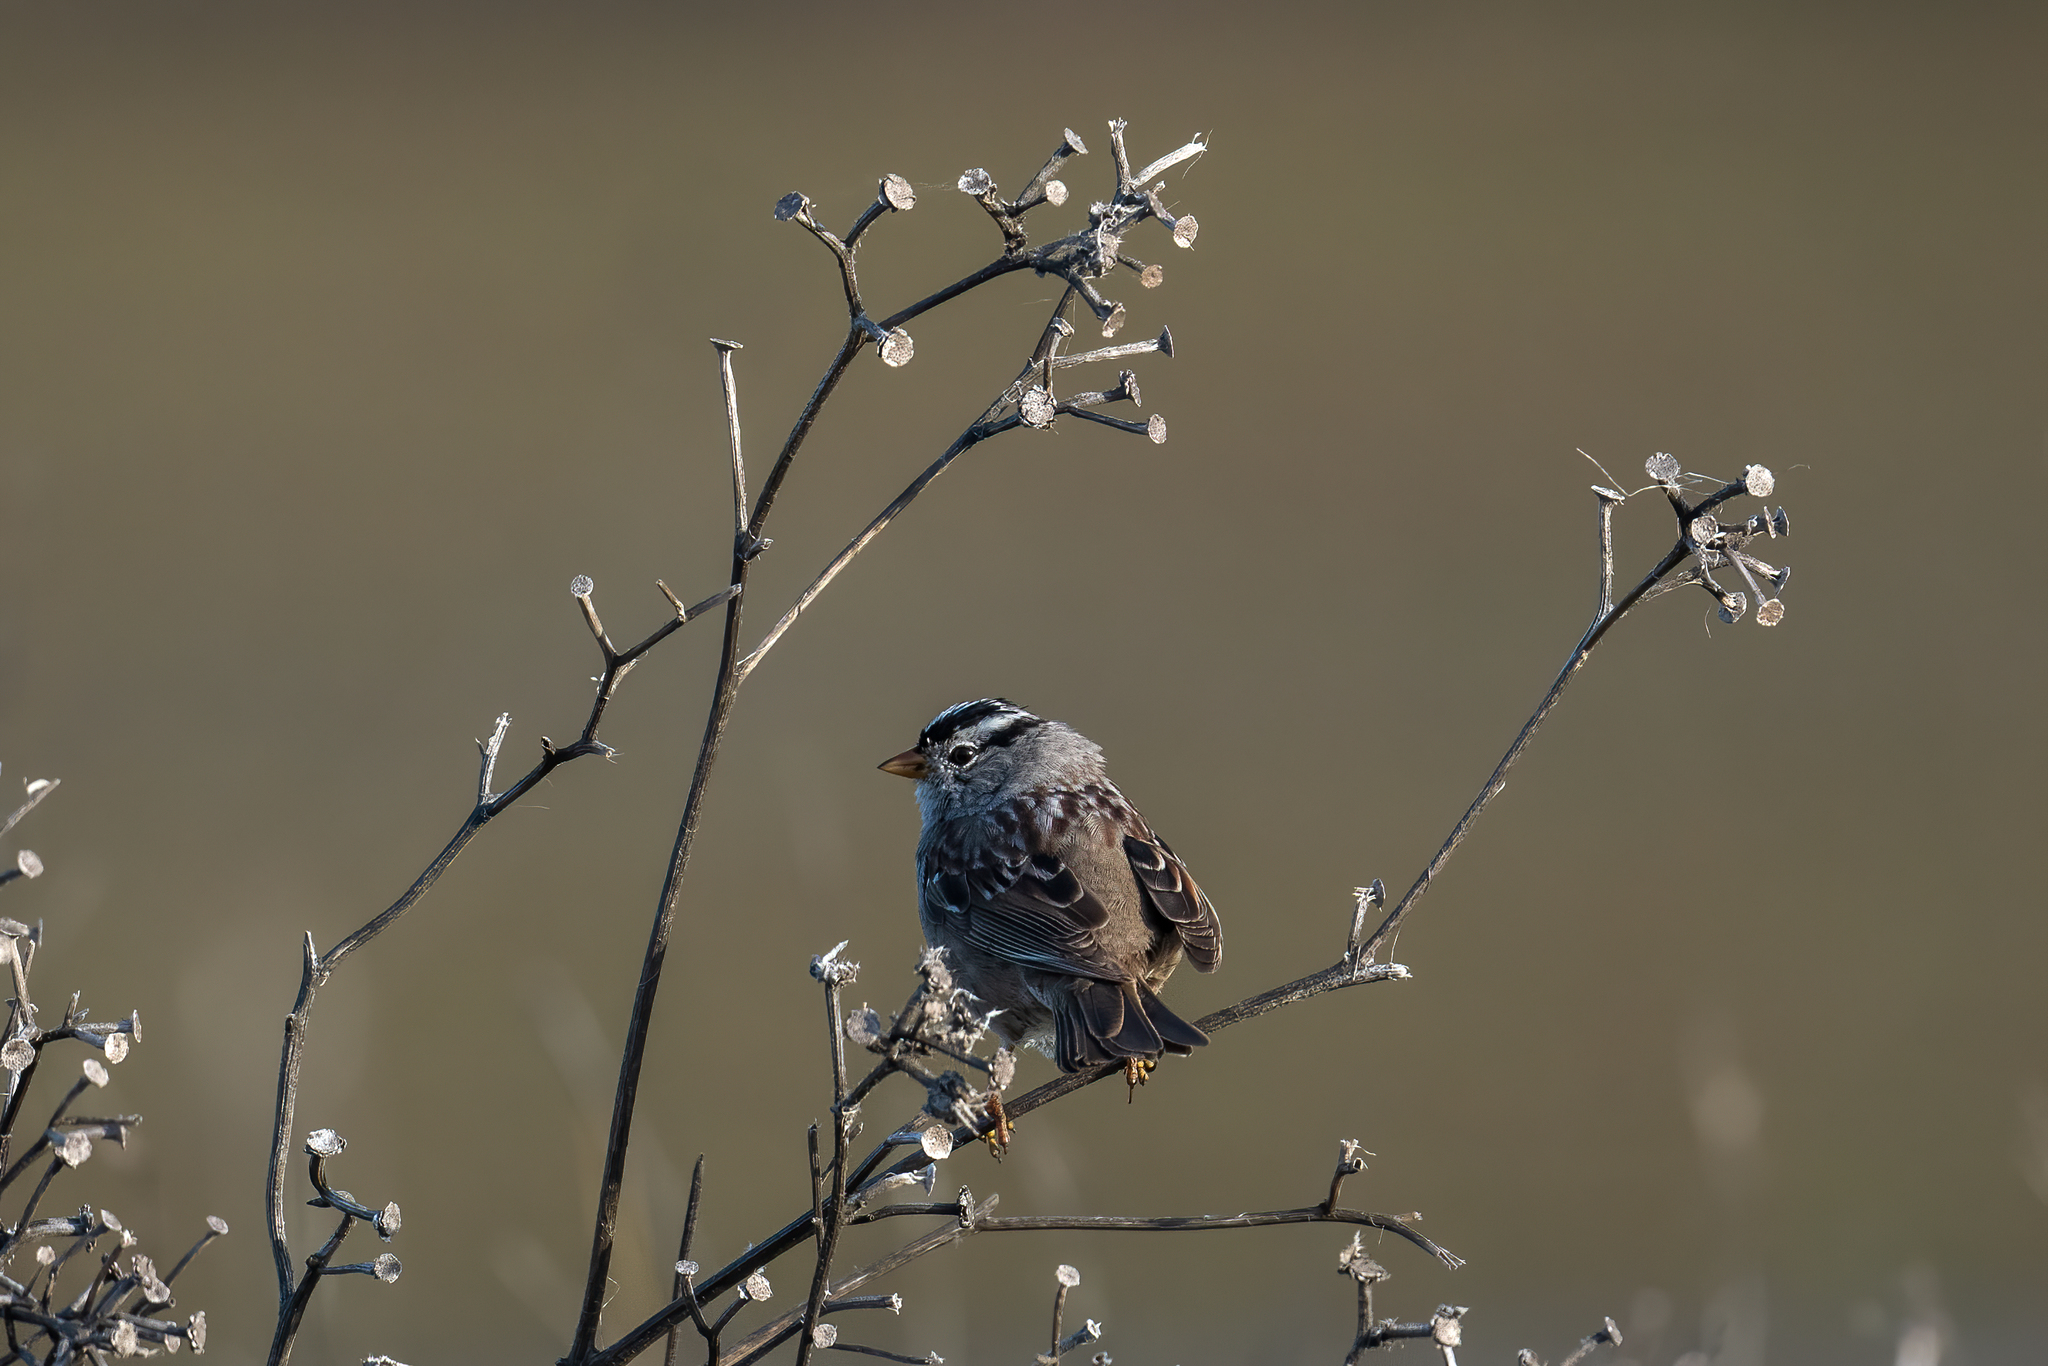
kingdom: Animalia
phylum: Chordata
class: Aves
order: Passeriformes
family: Passerellidae
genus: Zonotrichia
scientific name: Zonotrichia leucophrys
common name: White-crowned sparrow
